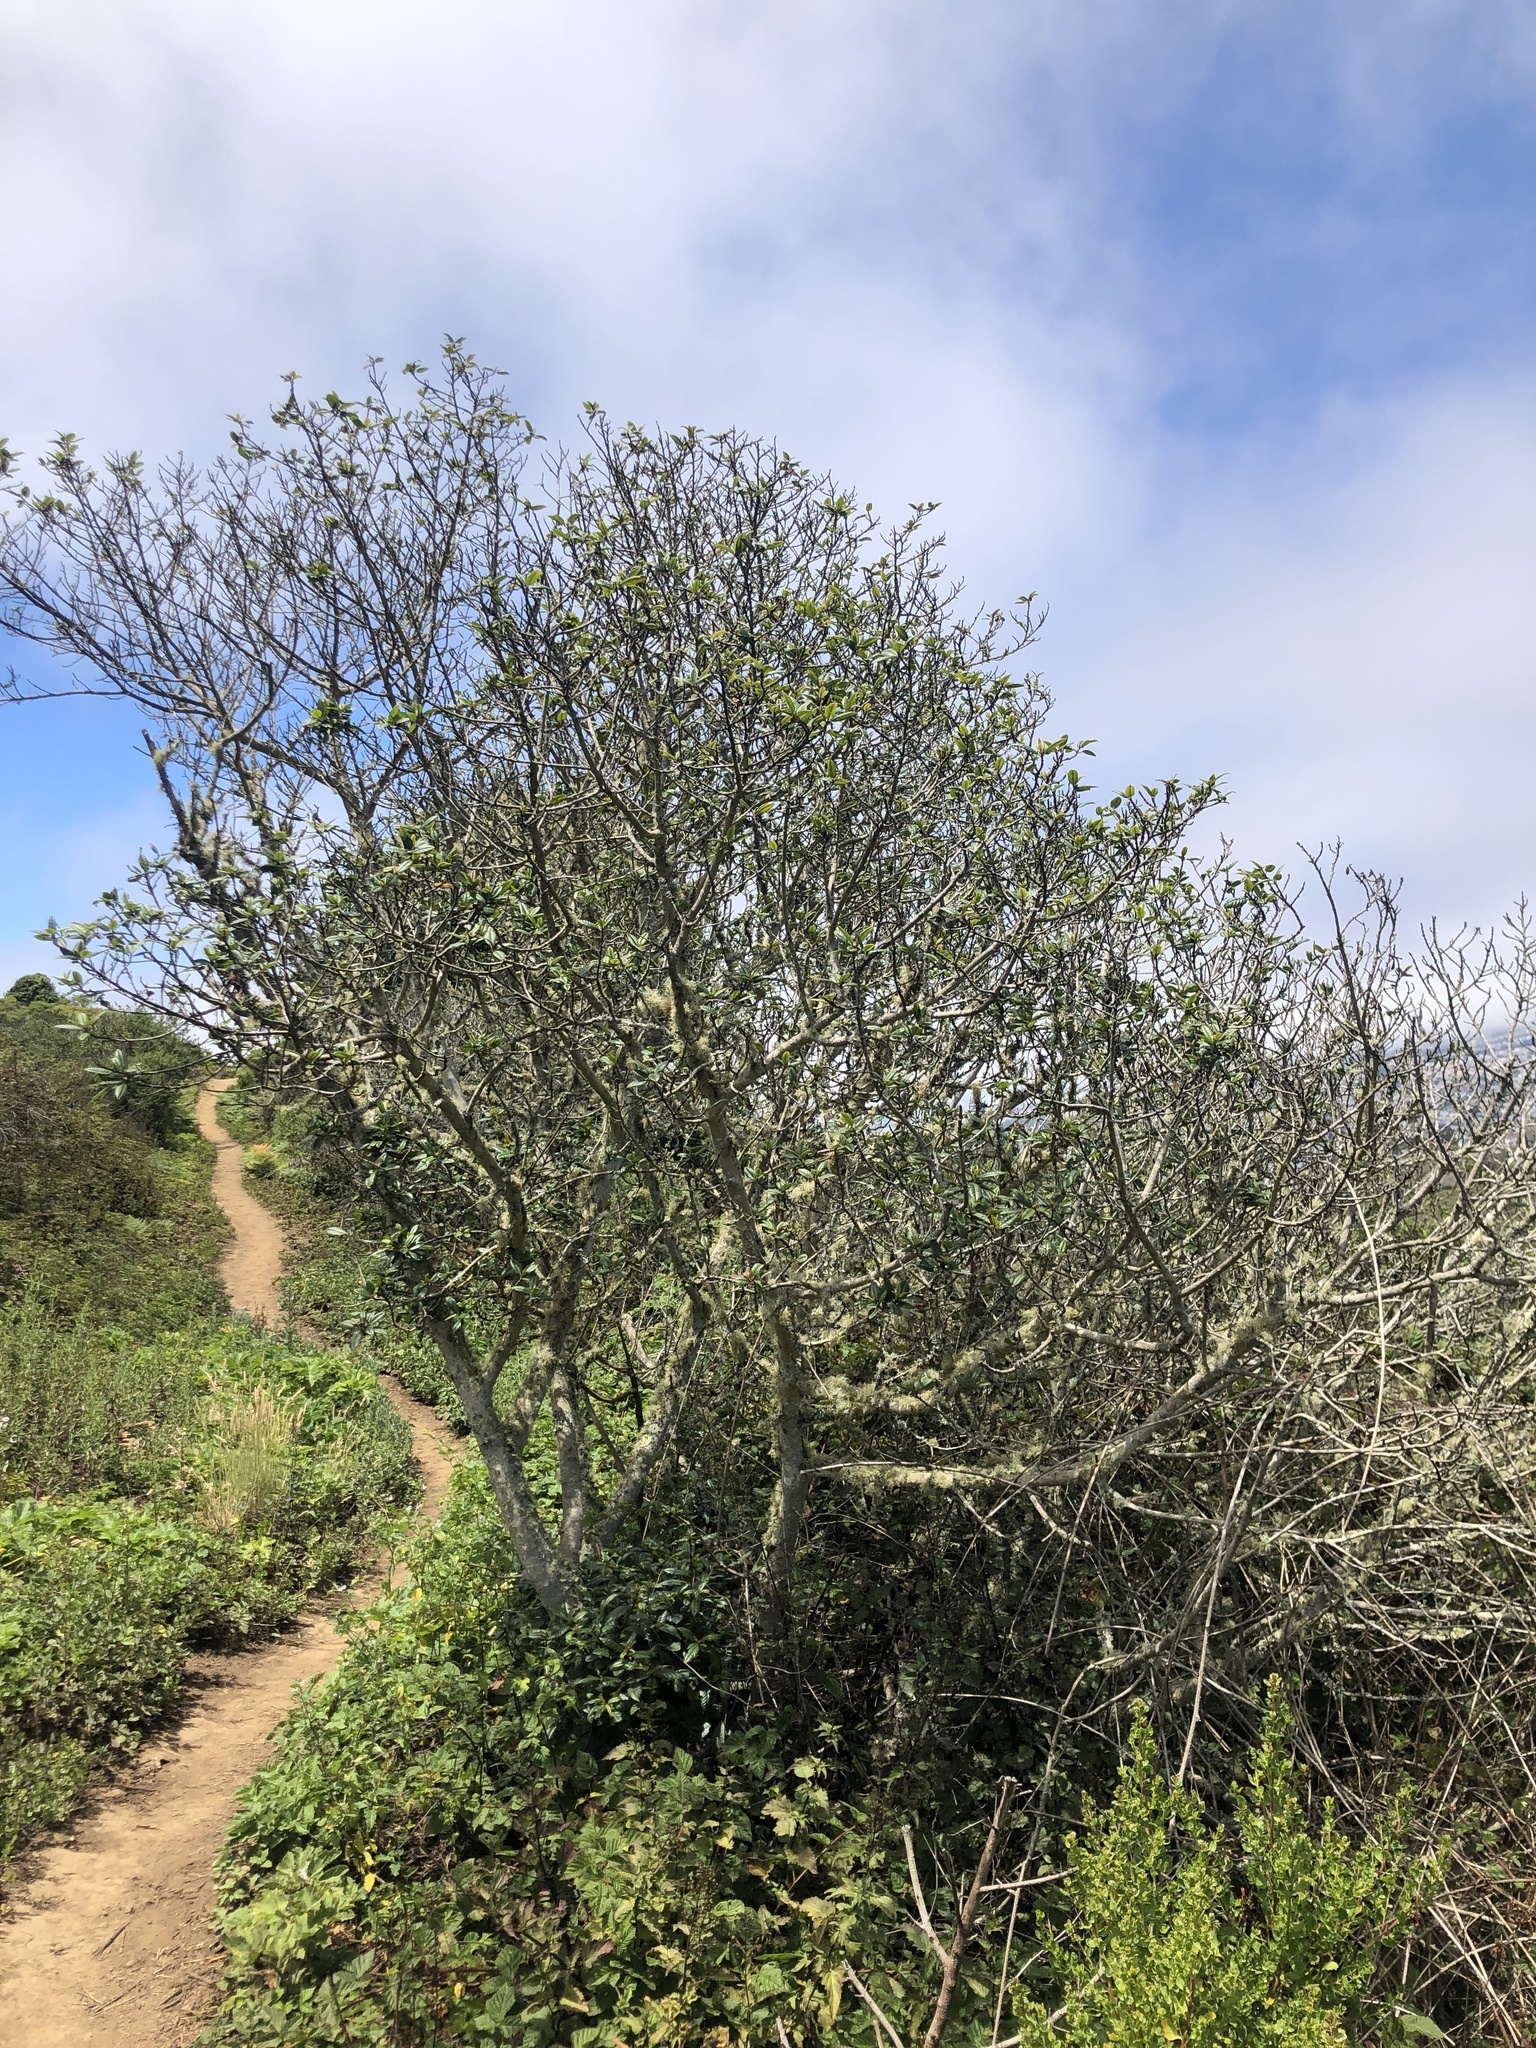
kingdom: Plantae
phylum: Tracheophyta
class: Magnoliopsida
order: Rosales
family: Rhamnaceae
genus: Frangula
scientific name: Frangula californica
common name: California buckthorn
